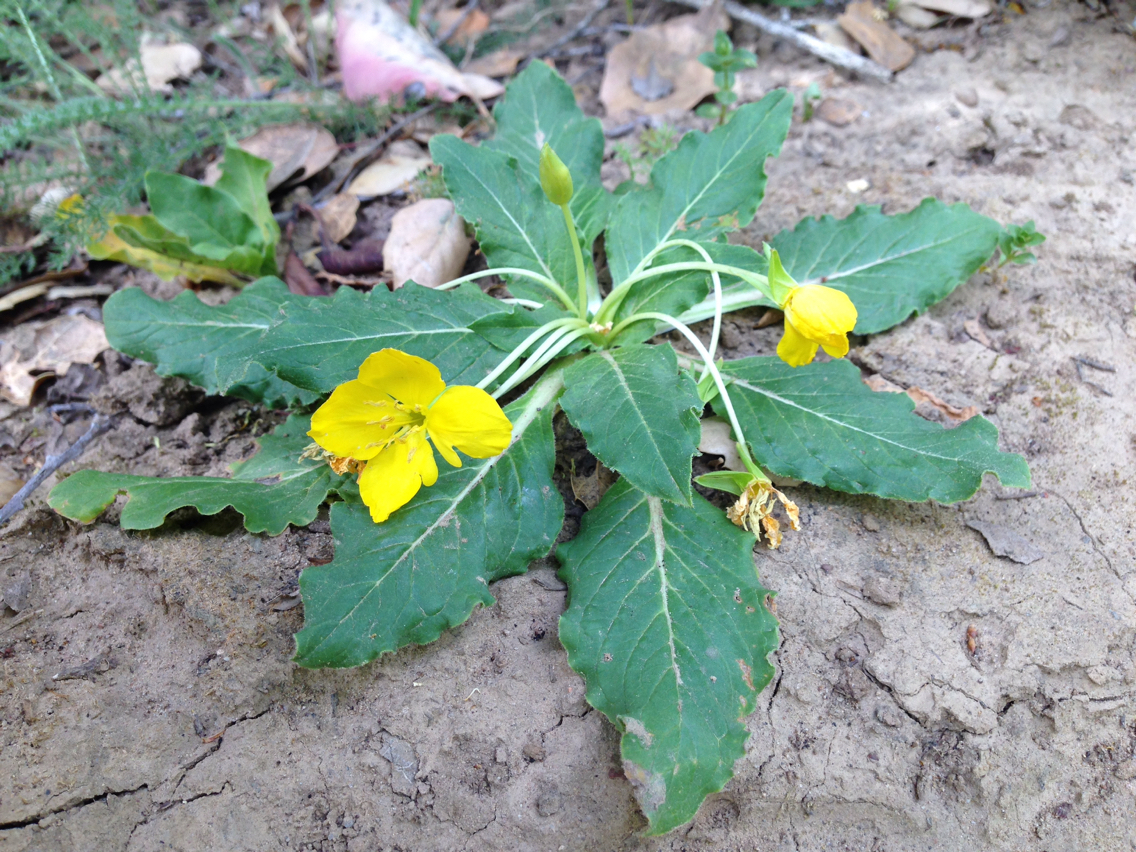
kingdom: Plantae
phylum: Tracheophyta
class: Magnoliopsida
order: Myrtales
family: Onagraceae
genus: Taraxia
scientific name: Taraxia ovata
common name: Goldeneggs
